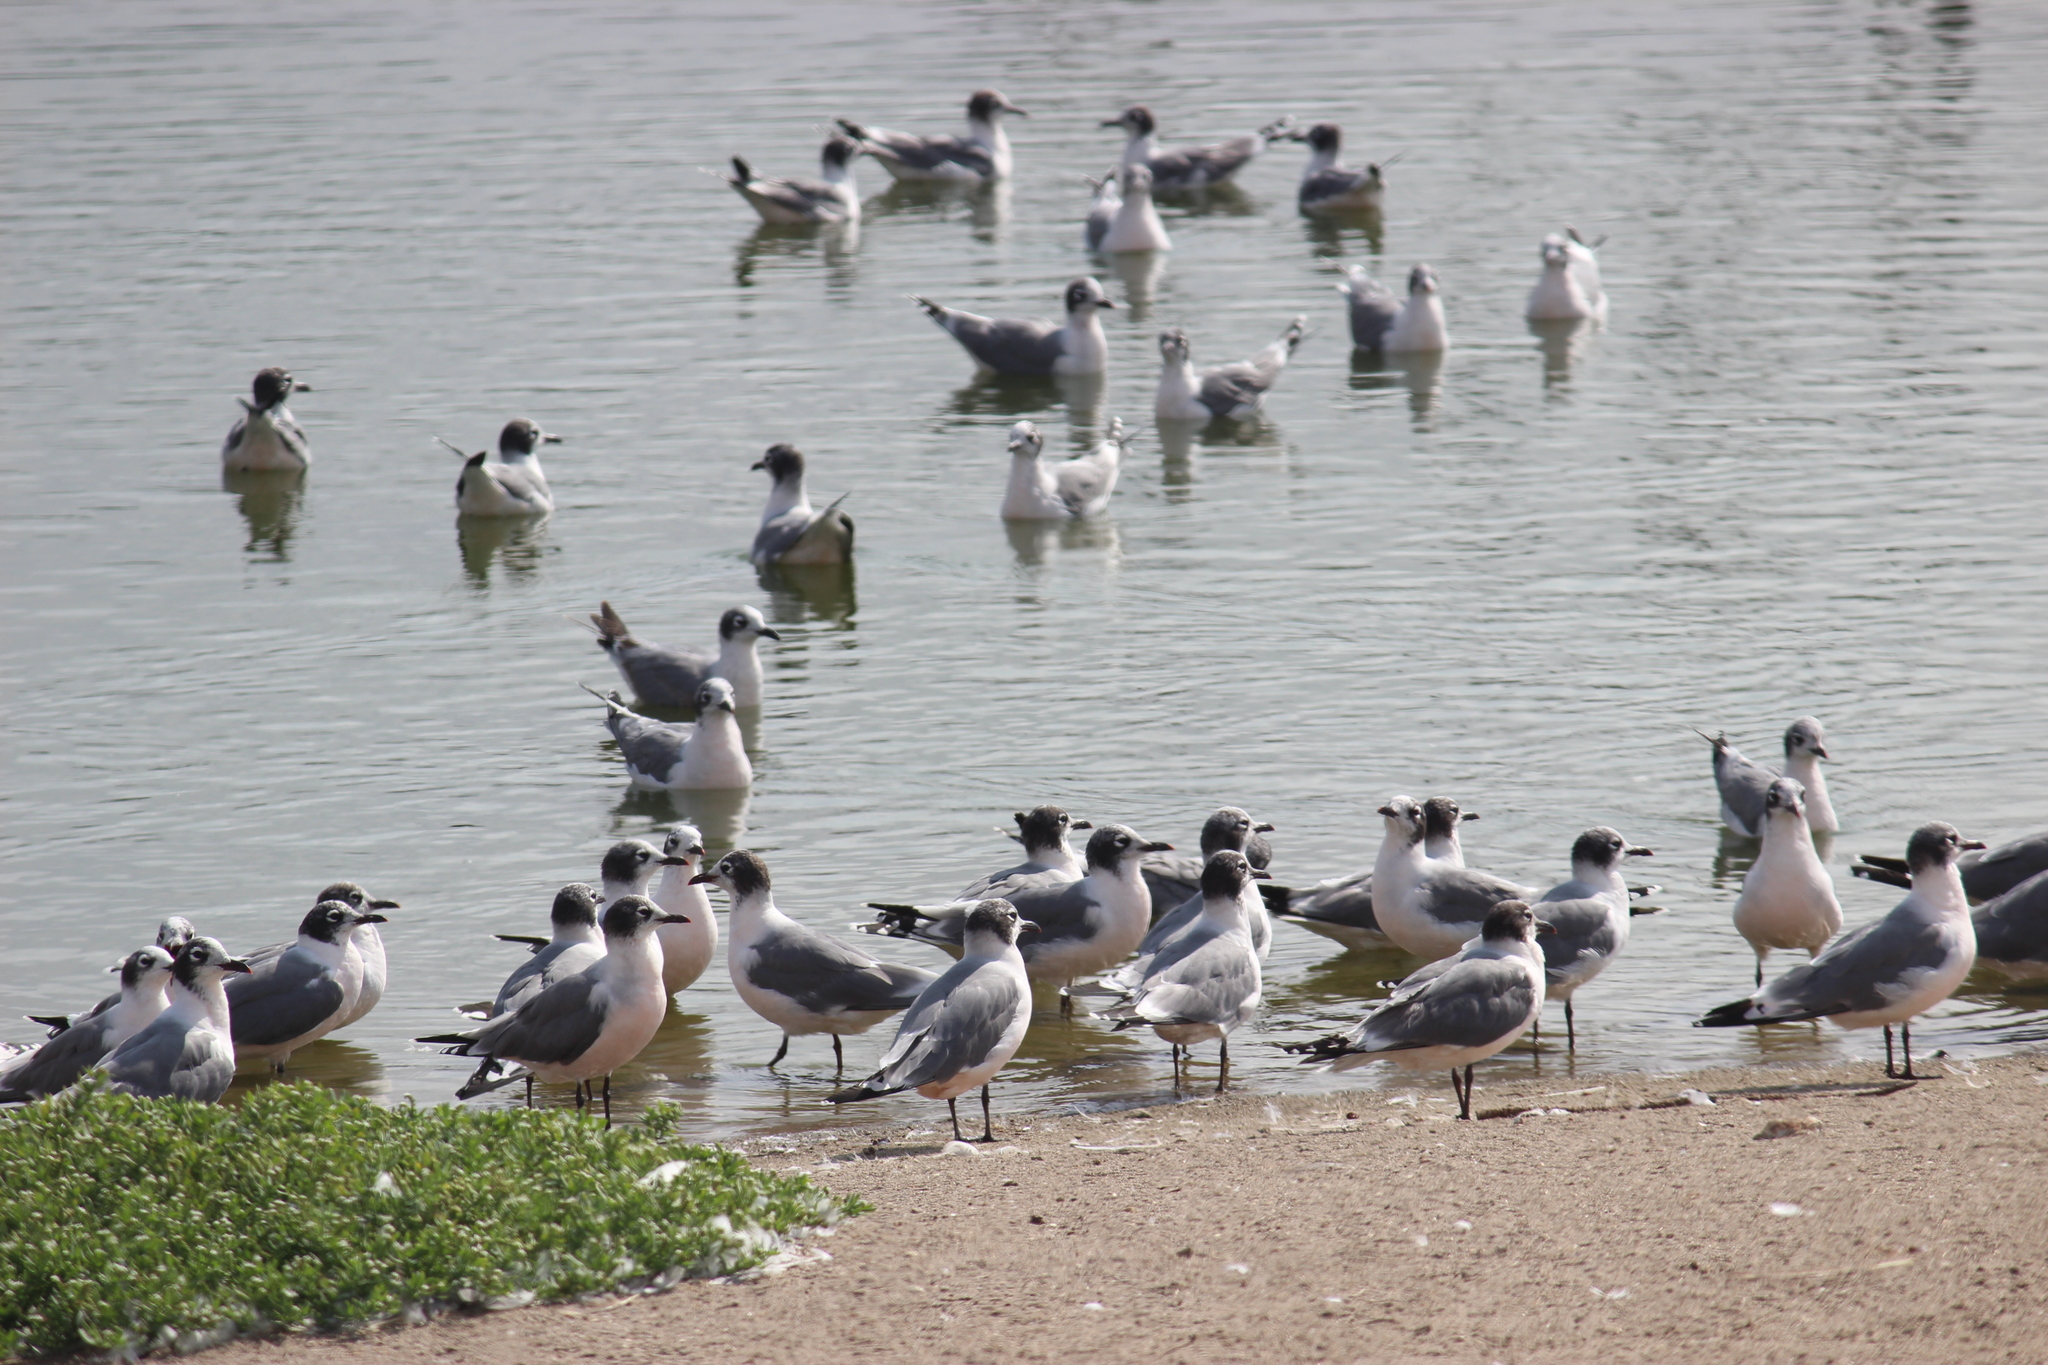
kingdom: Animalia
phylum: Chordata
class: Aves
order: Charadriiformes
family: Laridae
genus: Leucophaeus
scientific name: Leucophaeus pipixcan
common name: Franklin's gull
